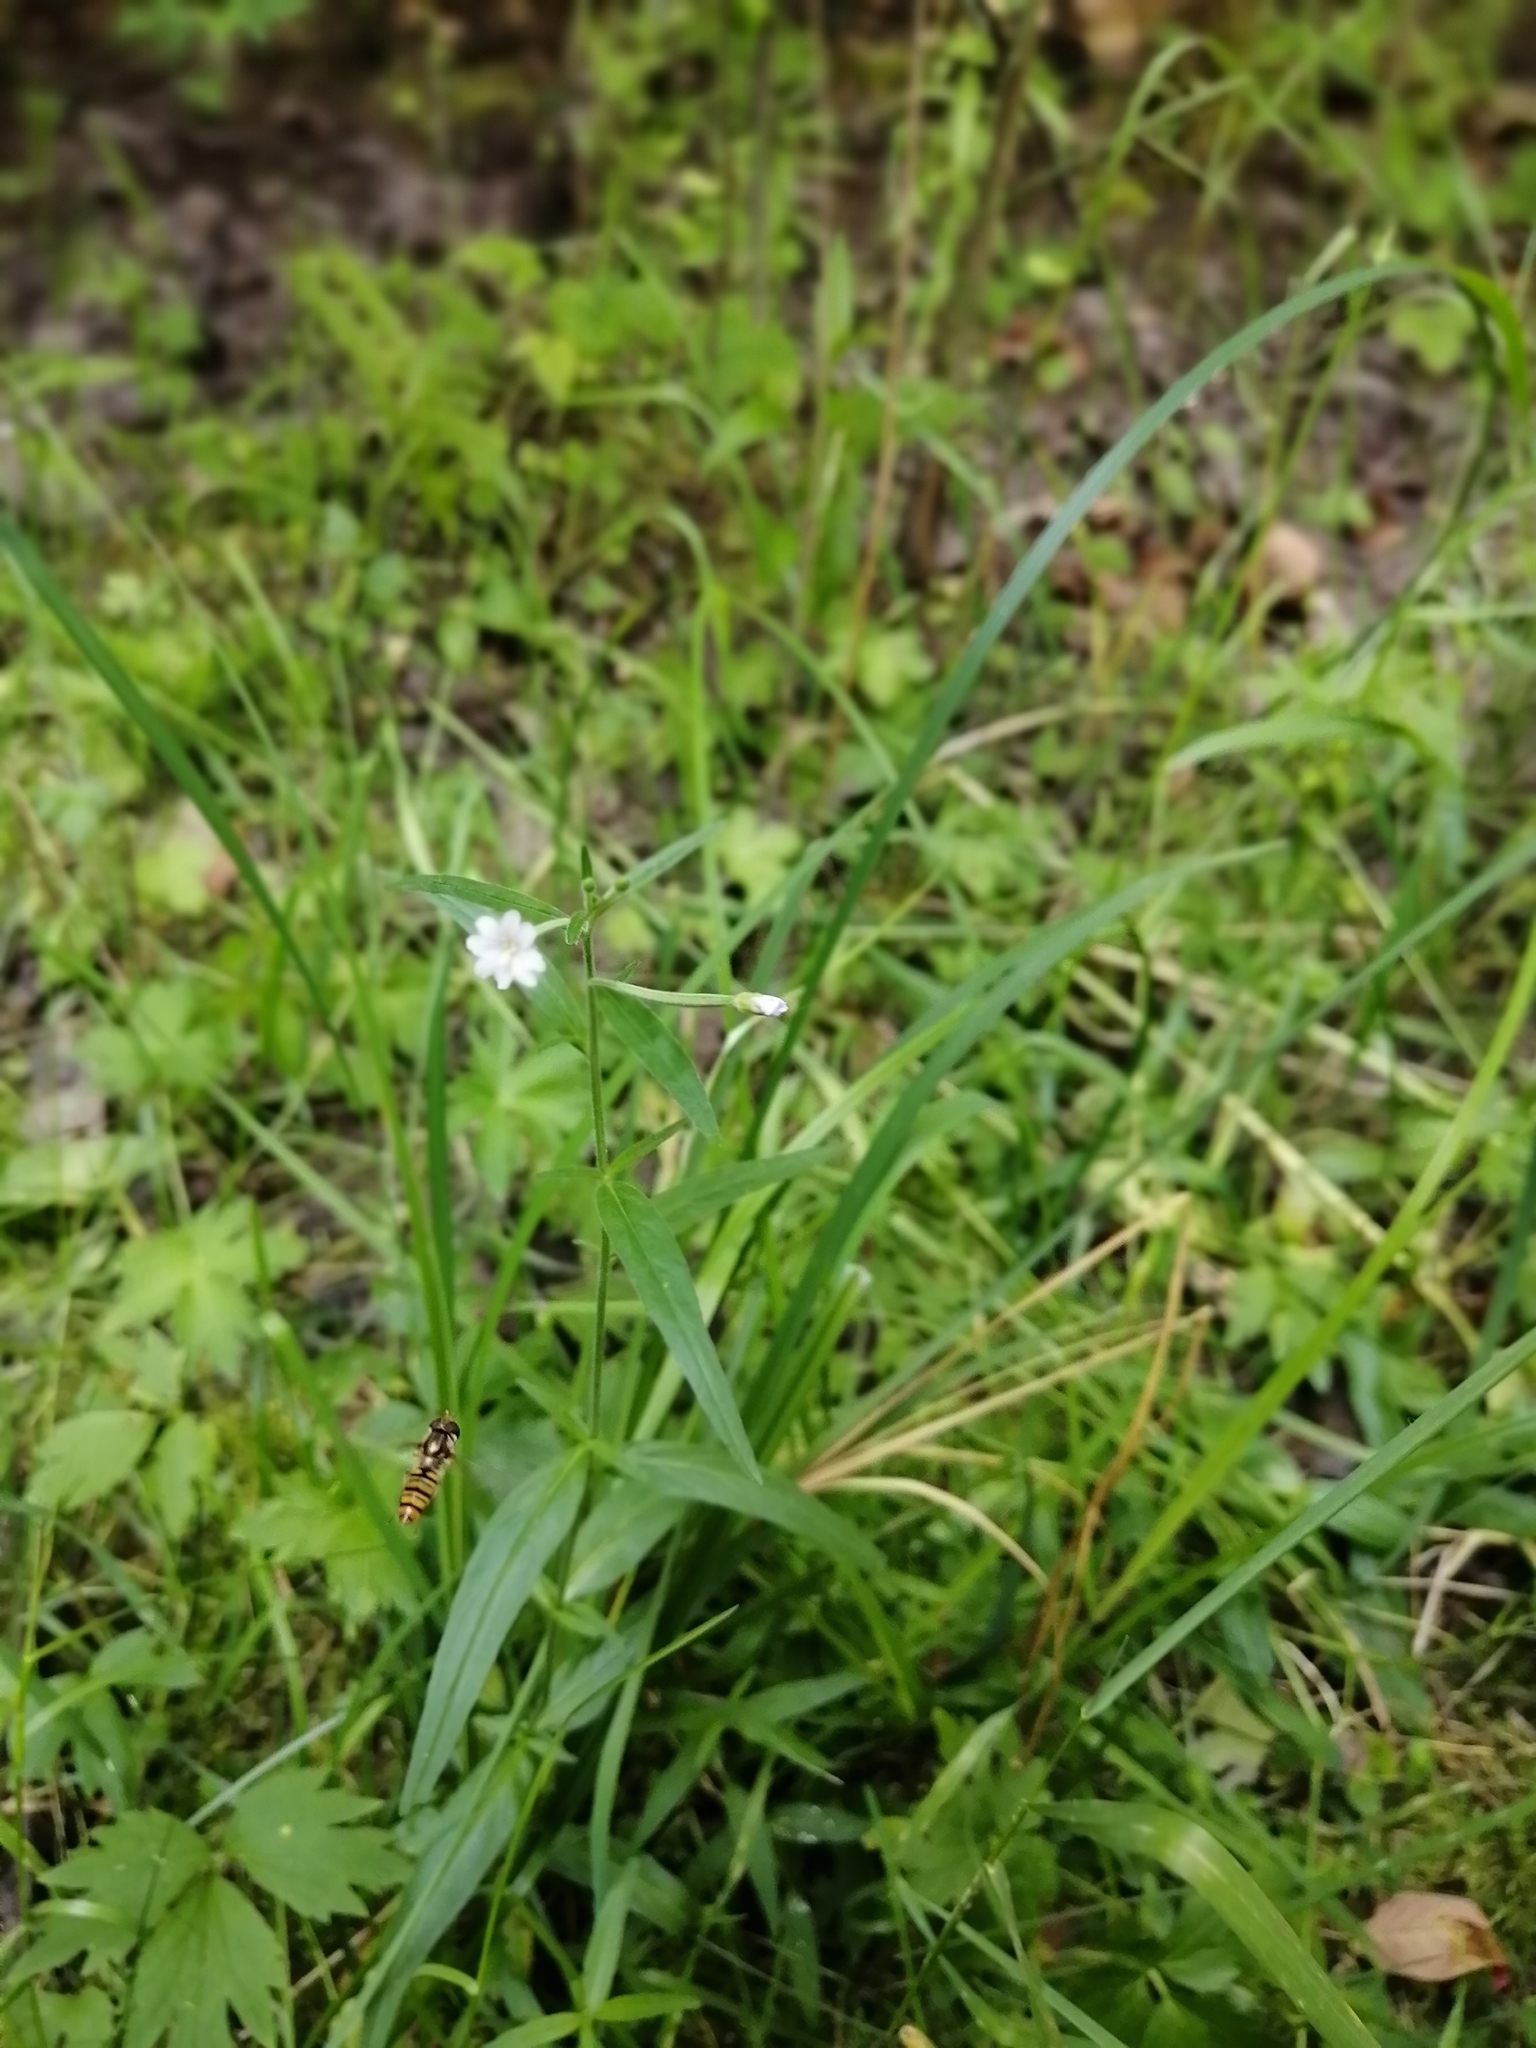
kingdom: Plantae
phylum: Tracheophyta
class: Magnoliopsida
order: Myrtales
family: Onagraceae
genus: Epilobium
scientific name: Epilobium palustre
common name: Marsh willowherb
